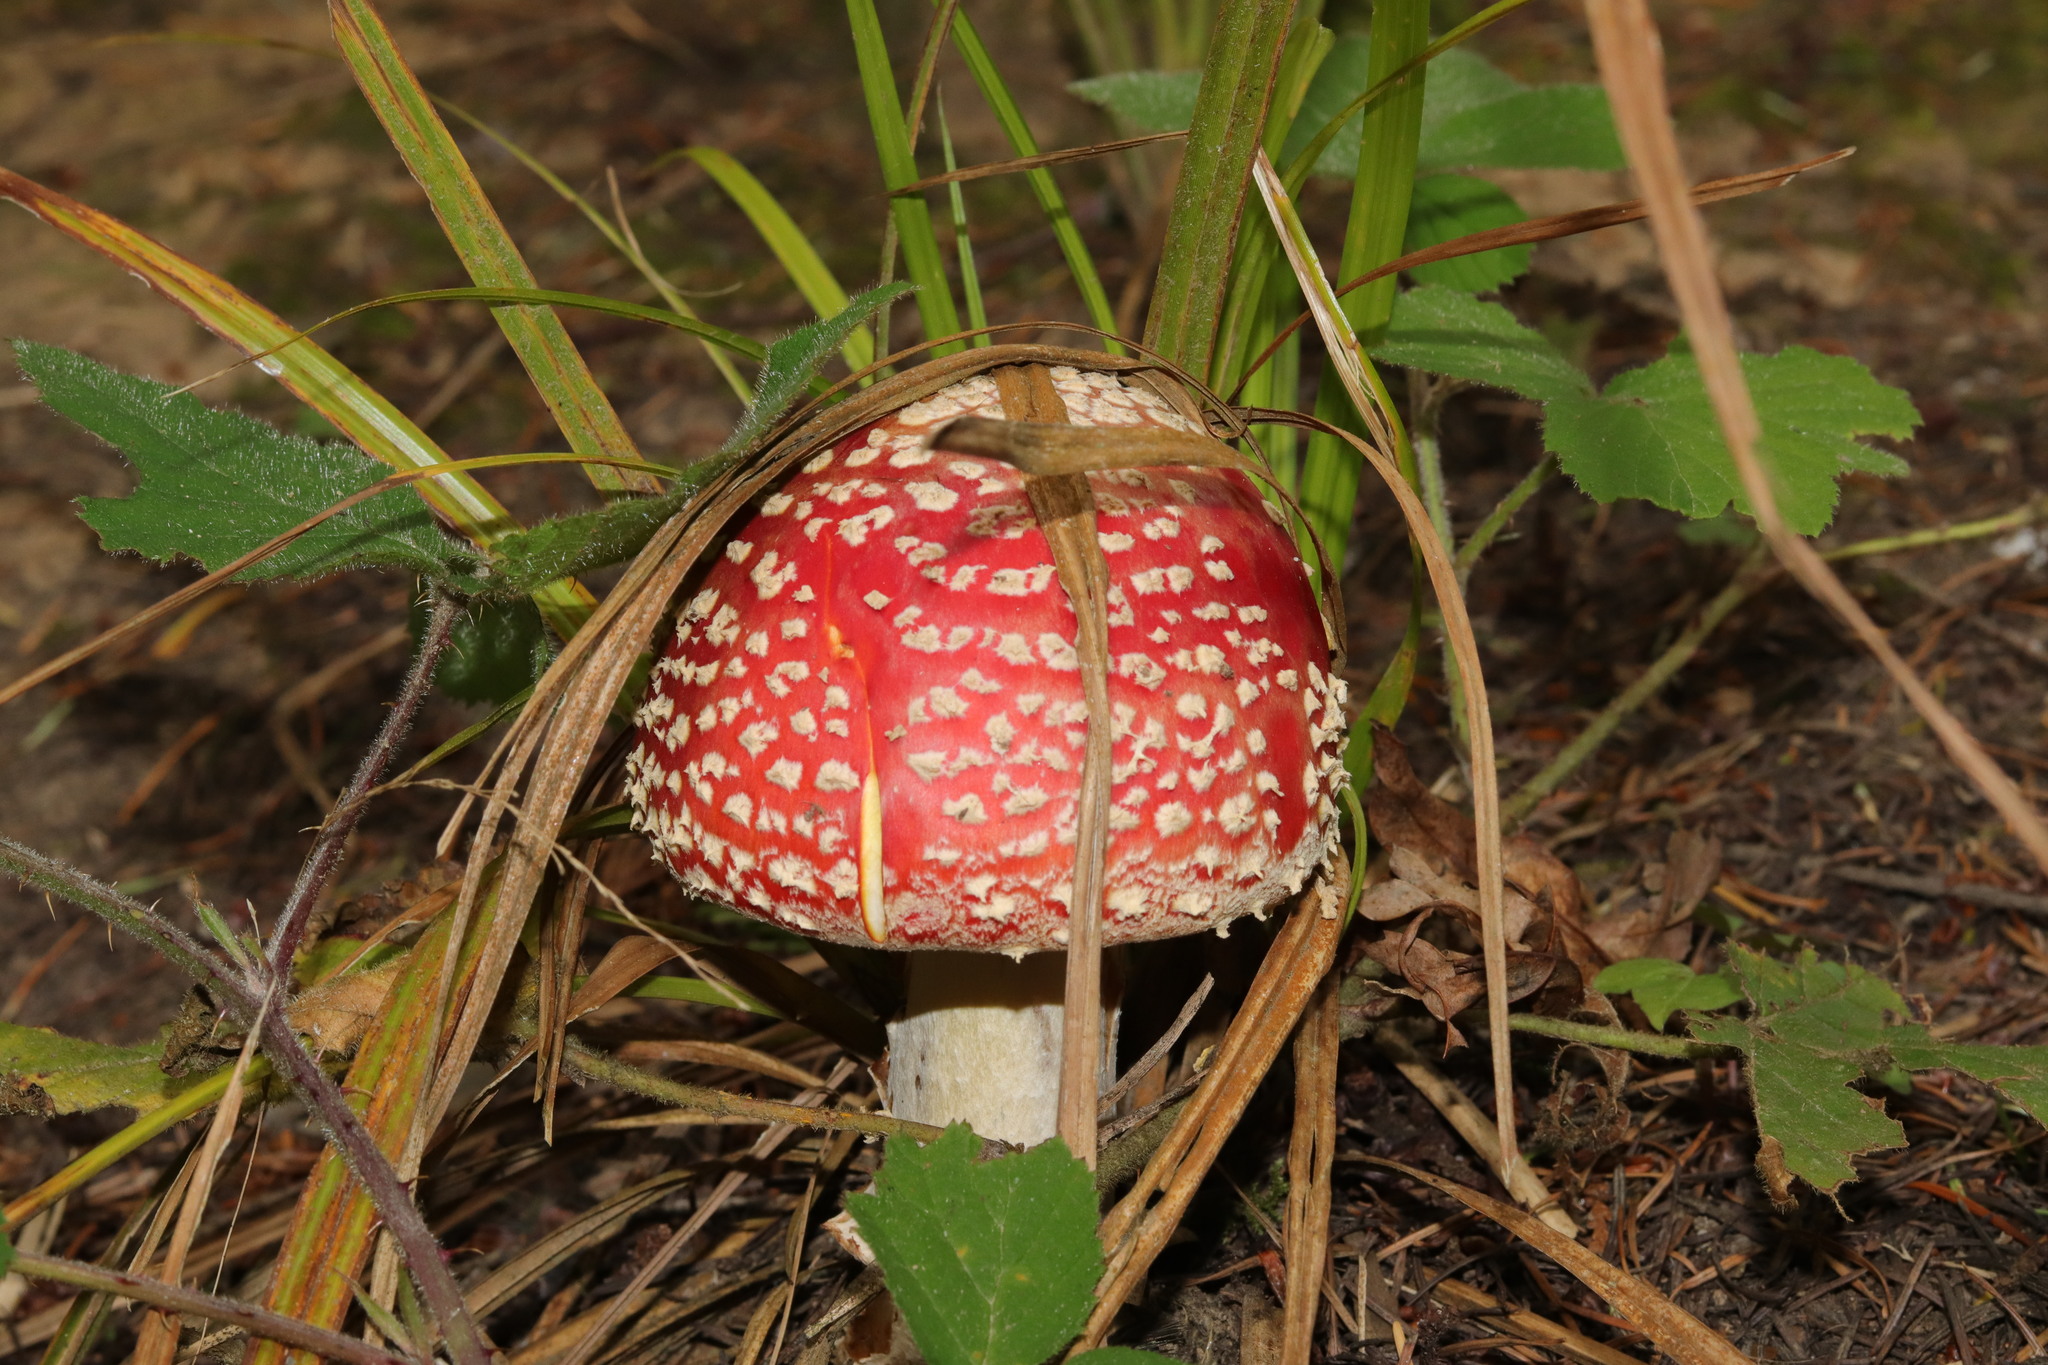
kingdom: Fungi
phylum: Basidiomycota
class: Agaricomycetes
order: Agaricales
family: Amanitaceae
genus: Amanita
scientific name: Amanita muscaria
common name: Fly agaric
